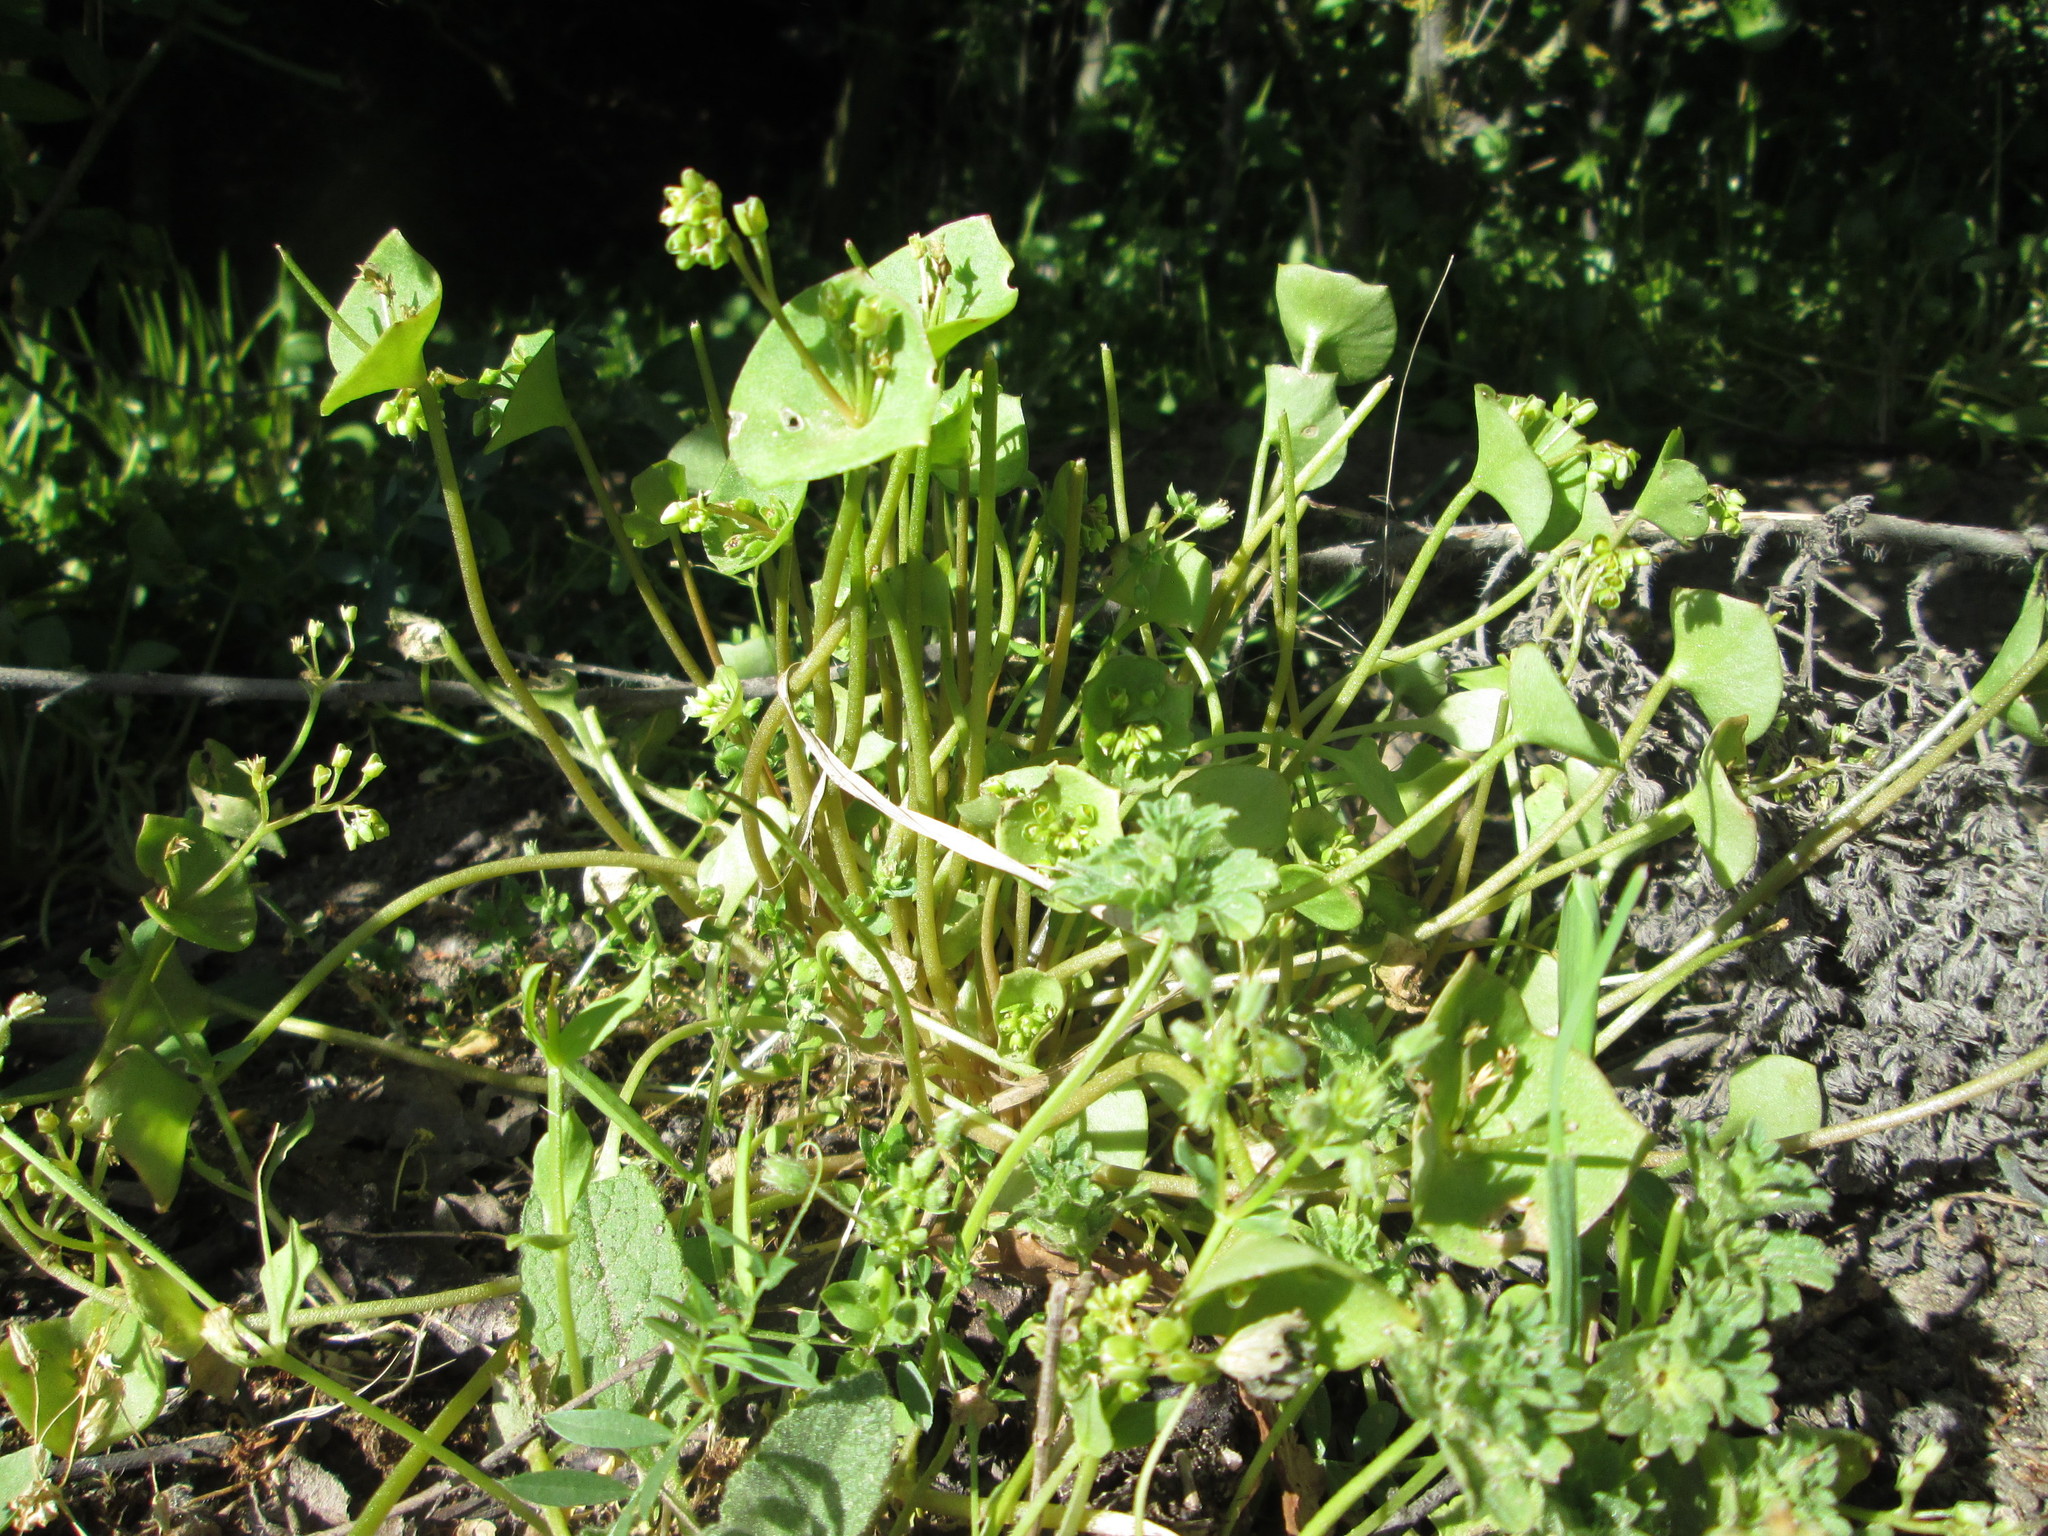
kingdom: Plantae
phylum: Tracheophyta
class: Magnoliopsida
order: Caryophyllales
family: Montiaceae
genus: Claytonia
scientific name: Claytonia perfoliata
